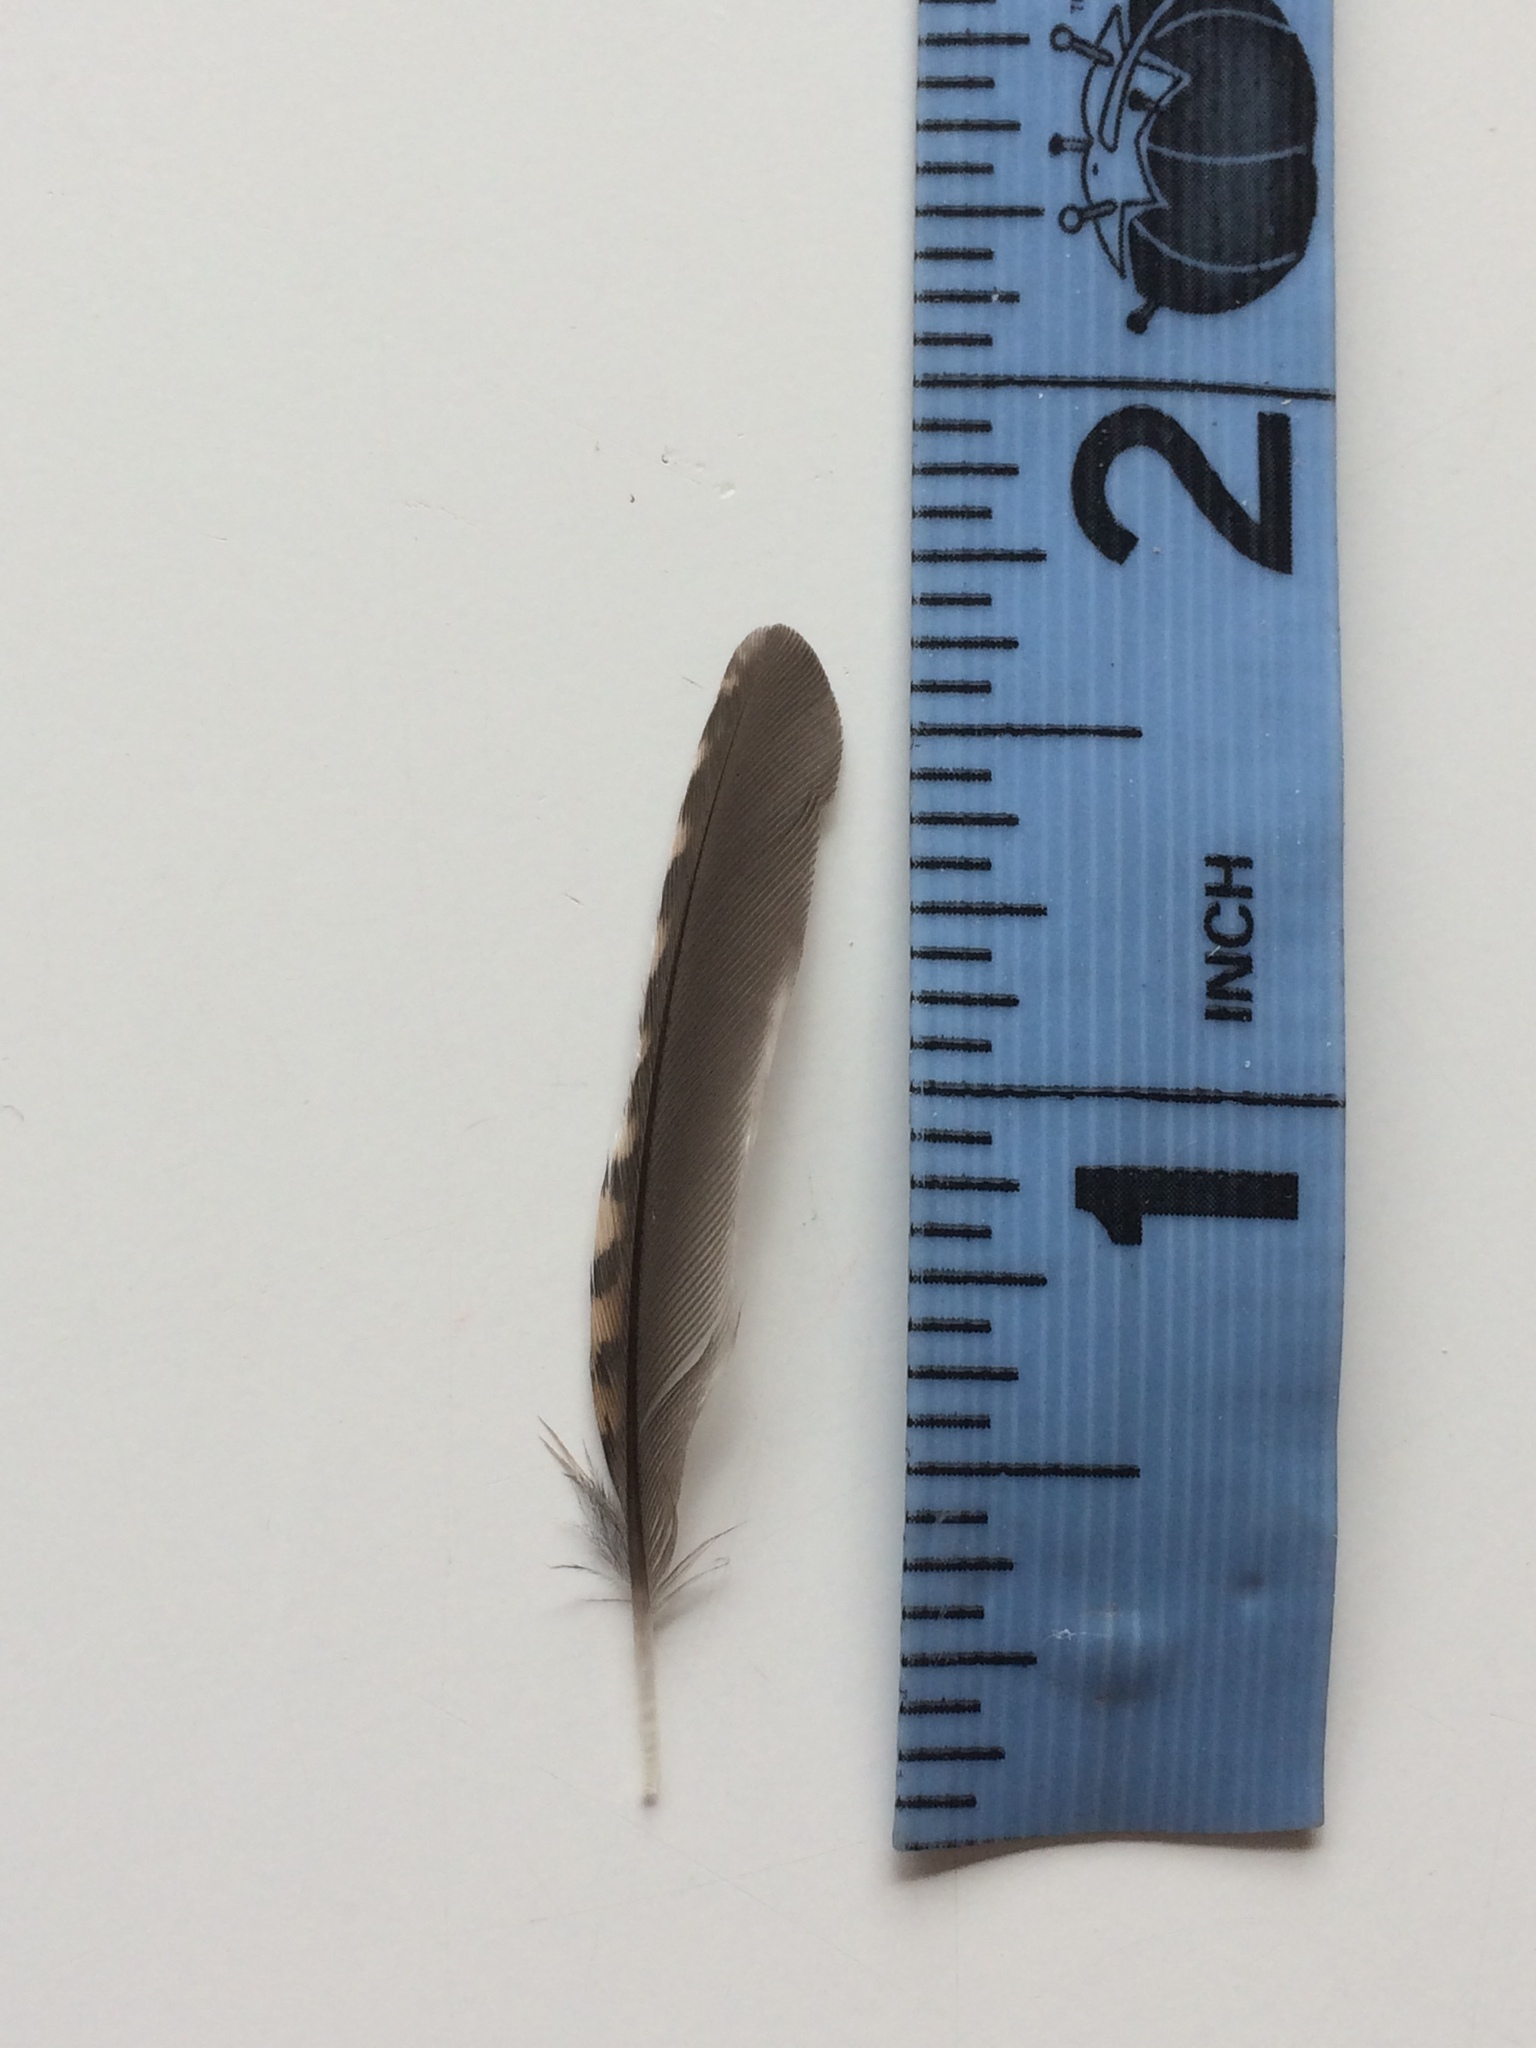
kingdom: Animalia
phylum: Chordata
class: Aves
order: Passeriformes
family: Troglodytidae
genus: Thryothorus
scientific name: Thryothorus ludovicianus
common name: Carolina wren
